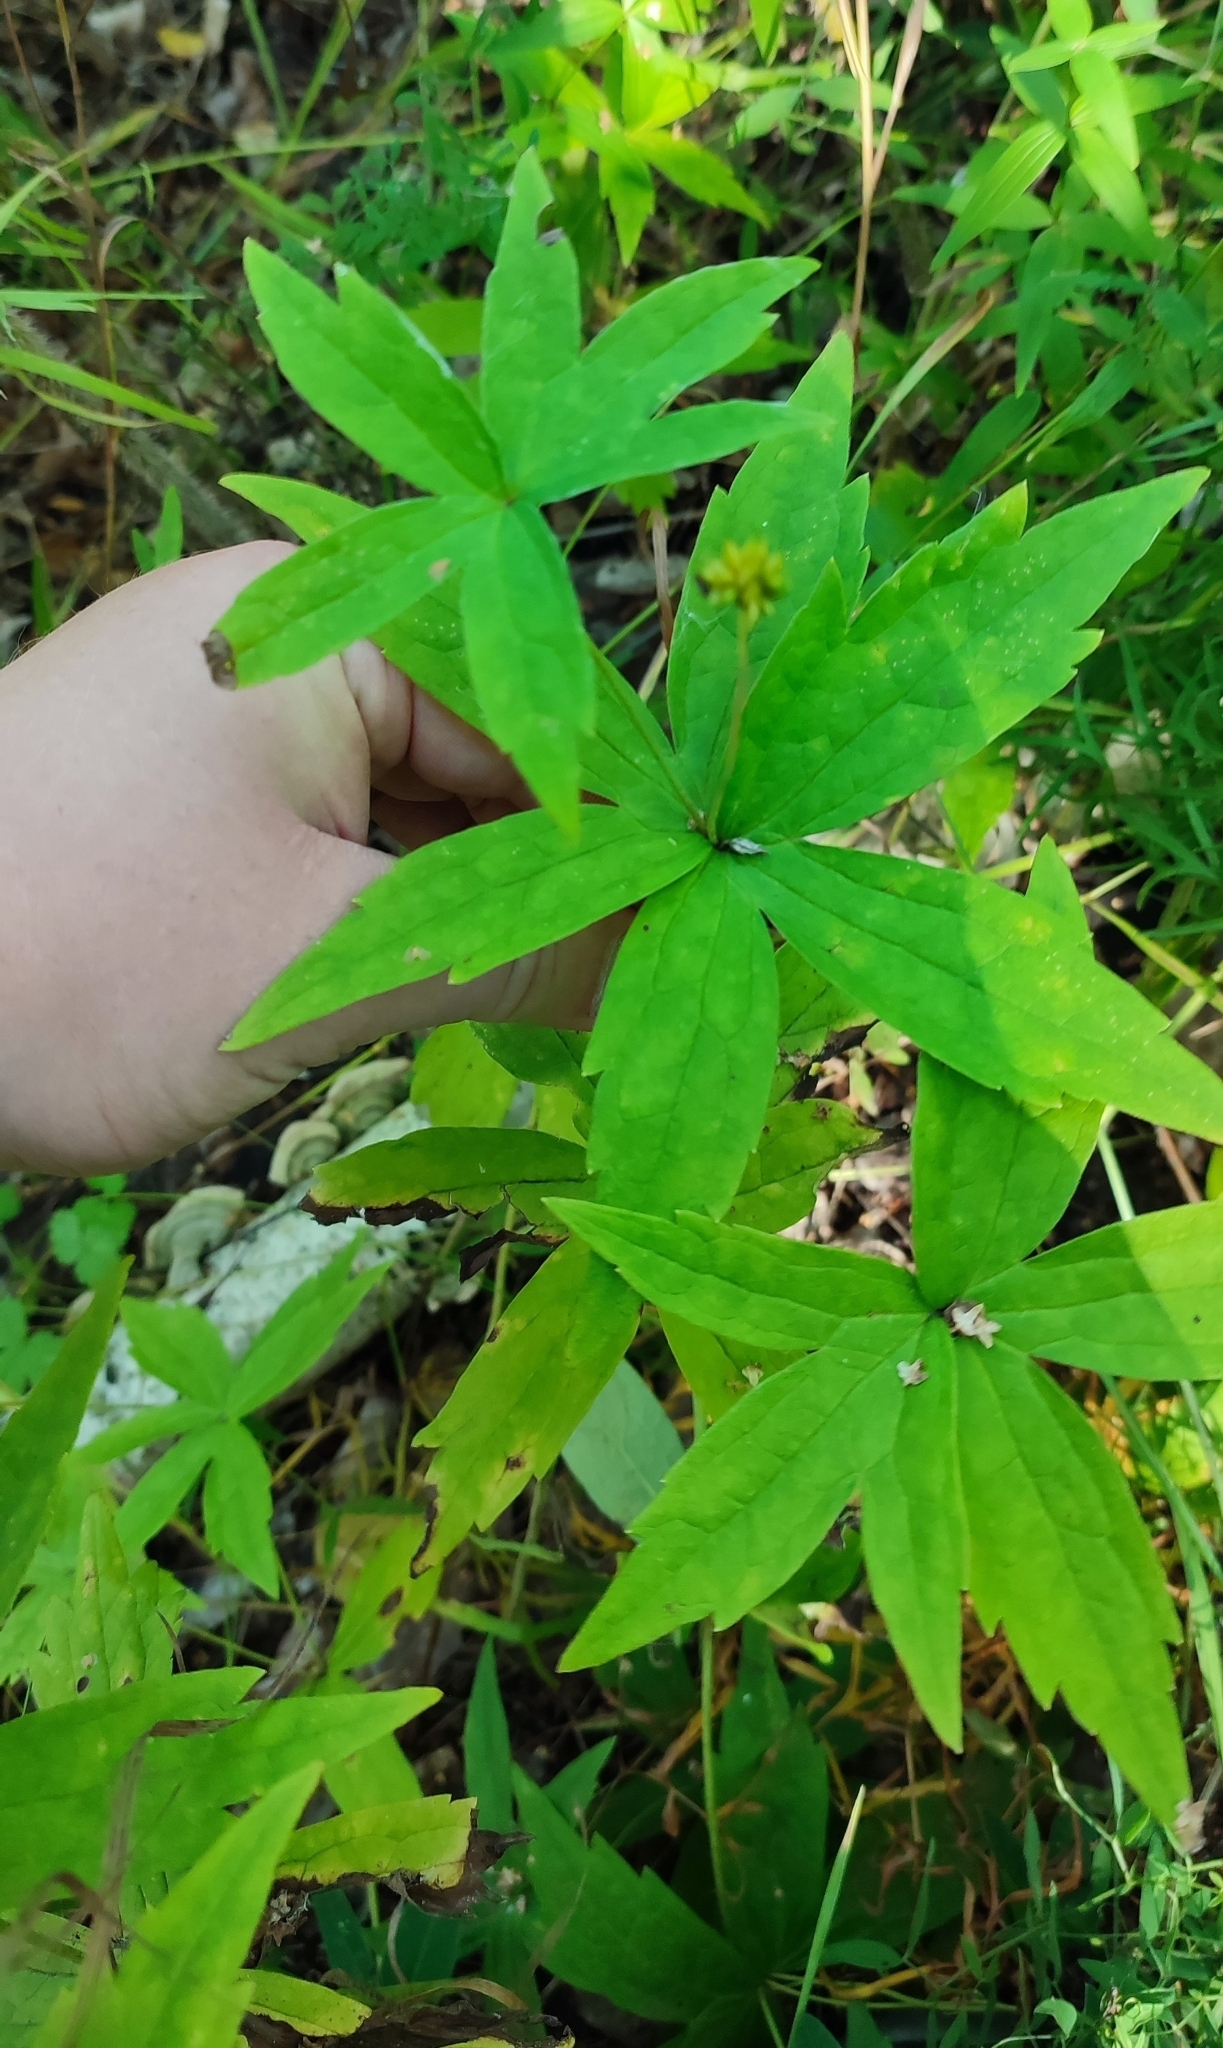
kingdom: Plantae
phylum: Tracheophyta
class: Magnoliopsida
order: Ranunculales
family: Ranunculaceae
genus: Anemonastrum
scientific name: Anemonastrum dichotomum
